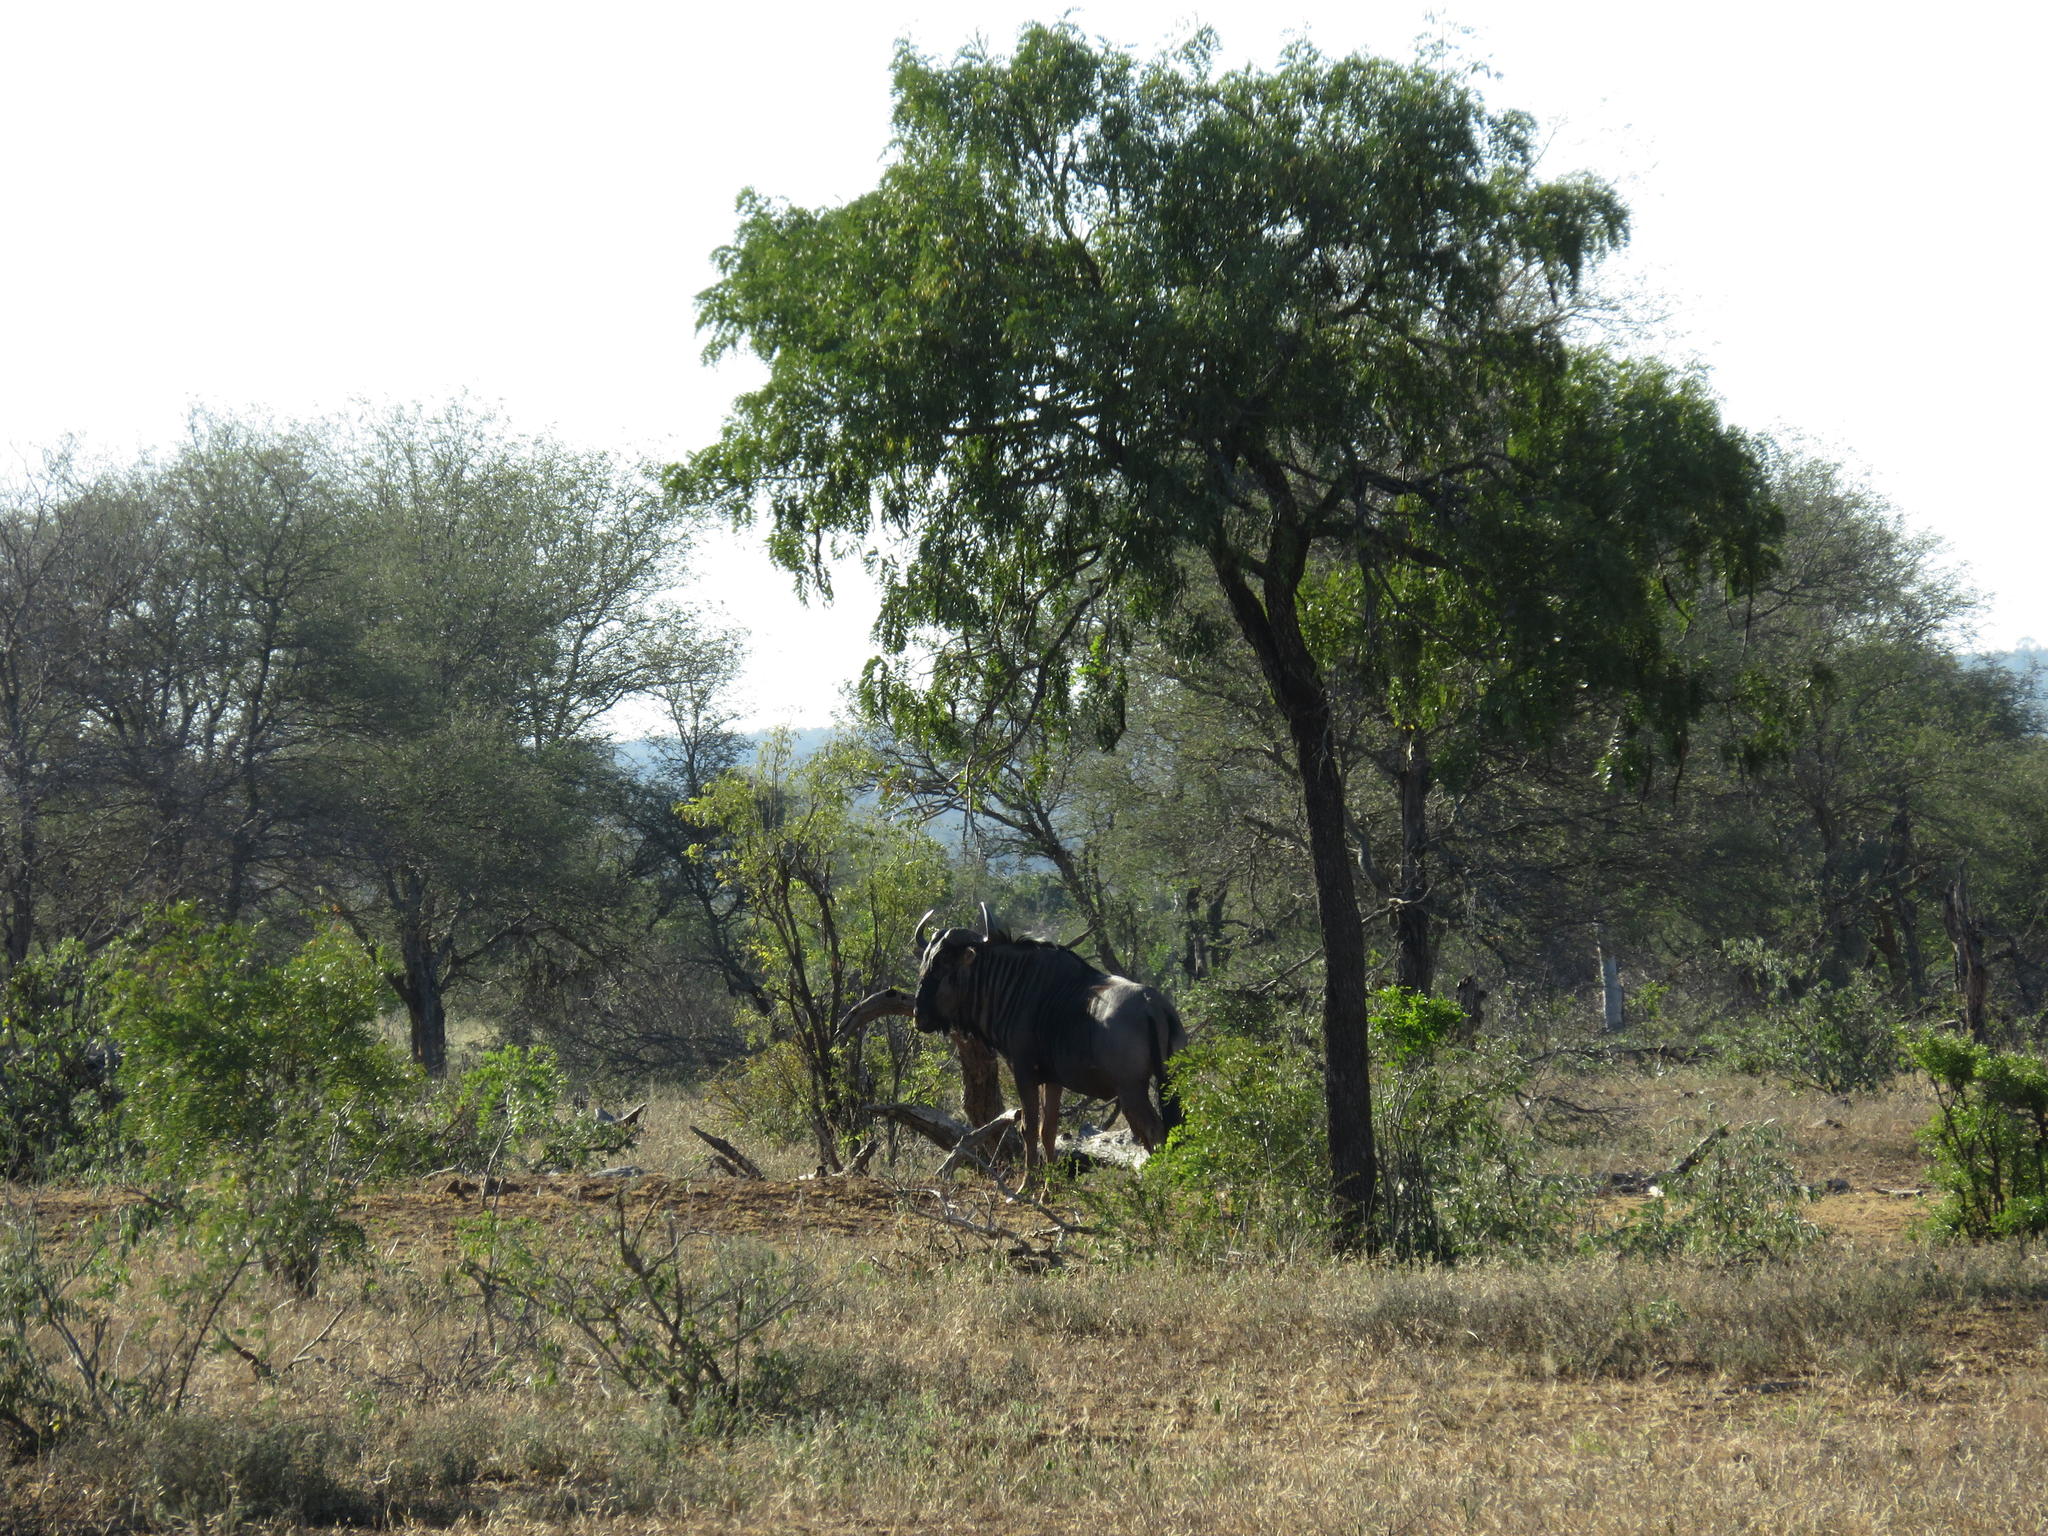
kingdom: Animalia
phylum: Chordata
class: Mammalia
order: Artiodactyla
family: Bovidae
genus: Connochaetes
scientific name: Connochaetes taurinus
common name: Blue wildebeest
